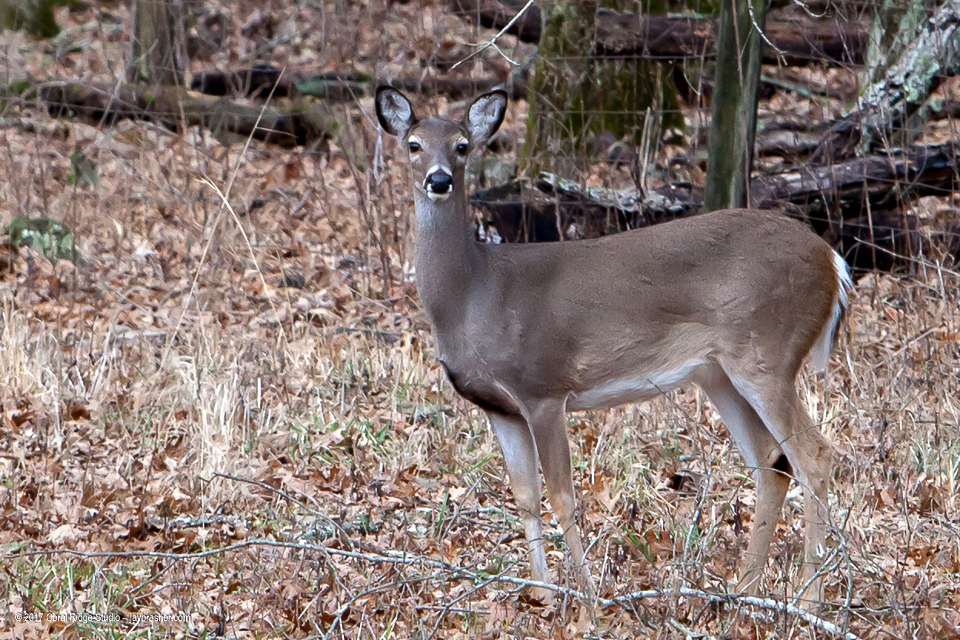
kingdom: Animalia
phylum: Chordata
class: Mammalia
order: Artiodactyla
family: Cervidae
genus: Odocoileus
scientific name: Odocoileus virginianus
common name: White-tailed deer
